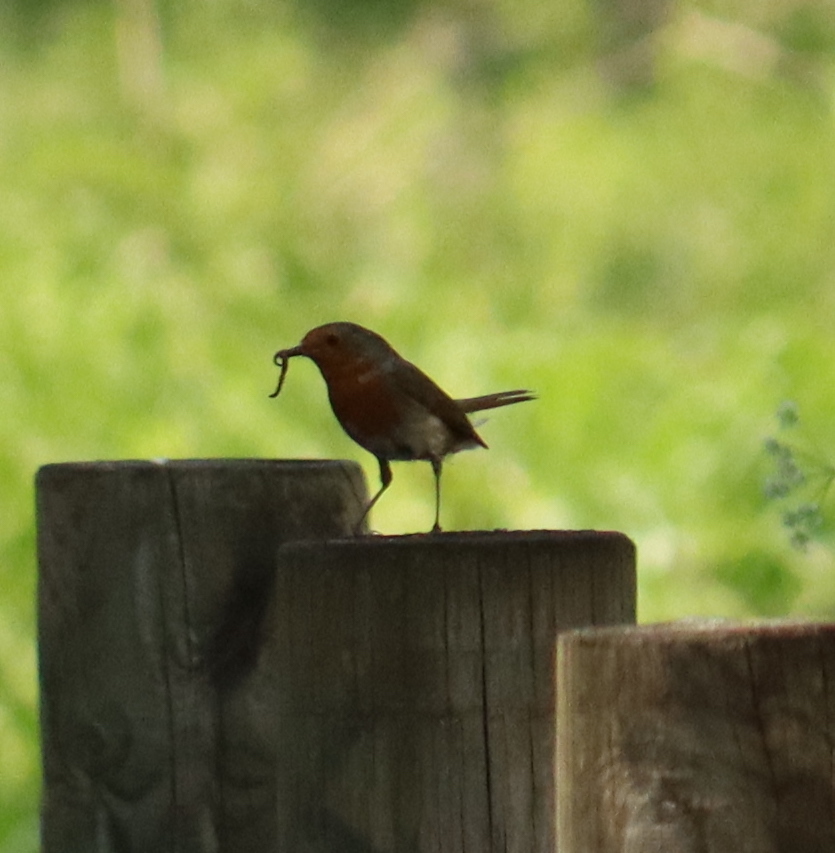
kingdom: Animalia
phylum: Chordata
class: Aves
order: Passeriformes
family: Muscicapidae
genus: Erithacus
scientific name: Erithacus rubecula
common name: European robin
